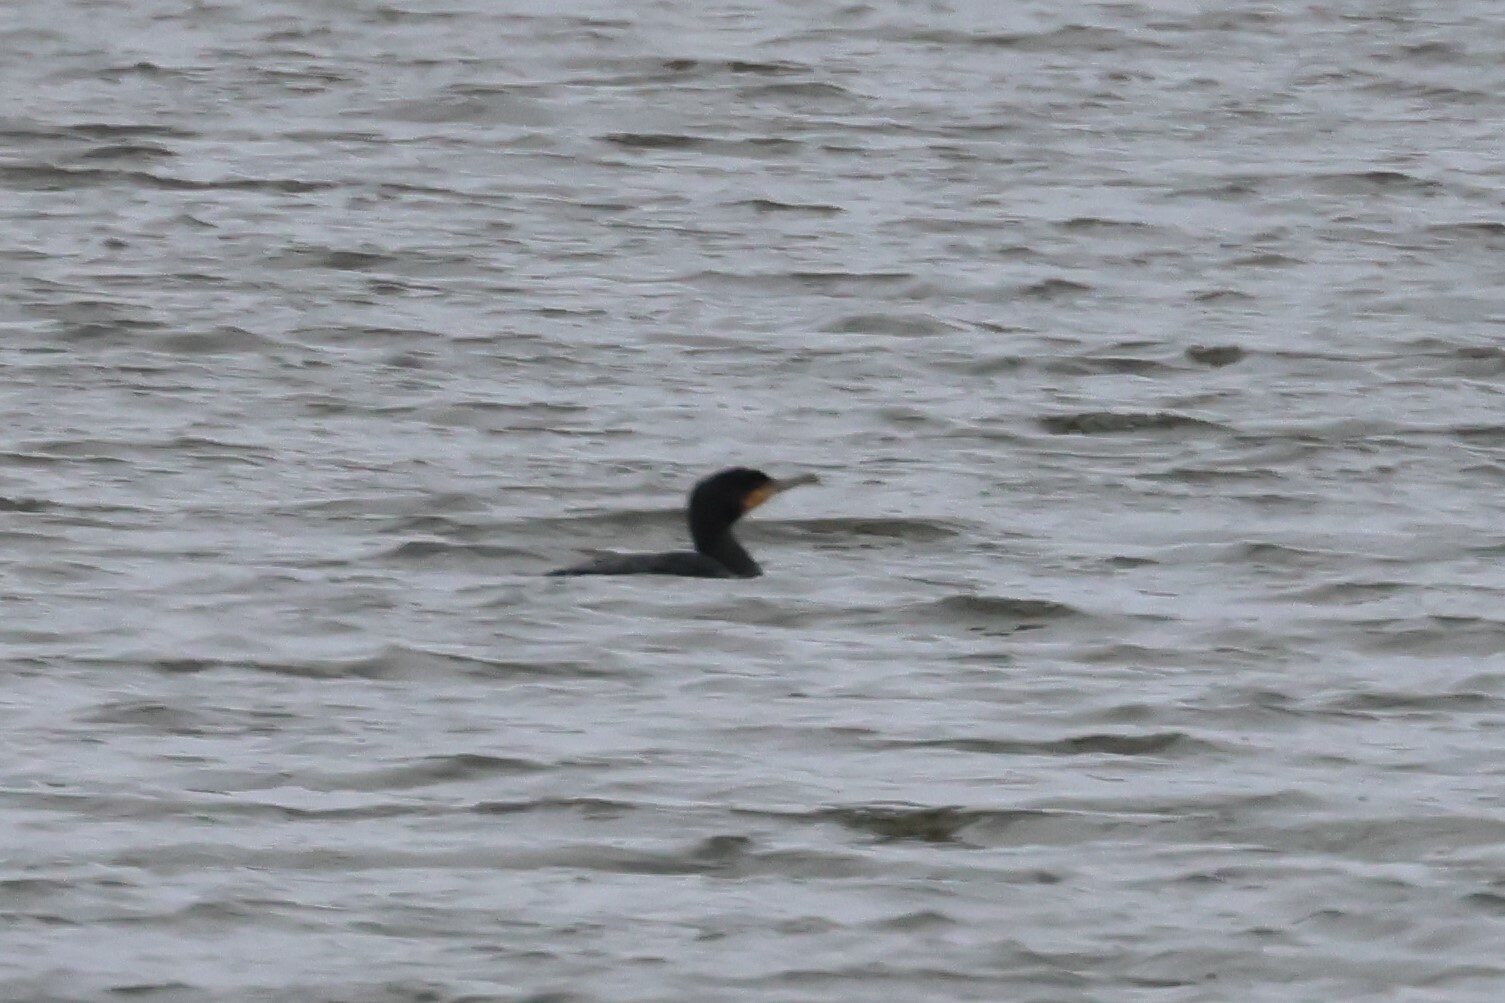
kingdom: Animalia
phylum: Chordata
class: Aves
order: Suliformes
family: Phalacrocoracidae
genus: Phalacrocorax
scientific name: Phalacrocorax auritus
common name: Double-crested cormorant
